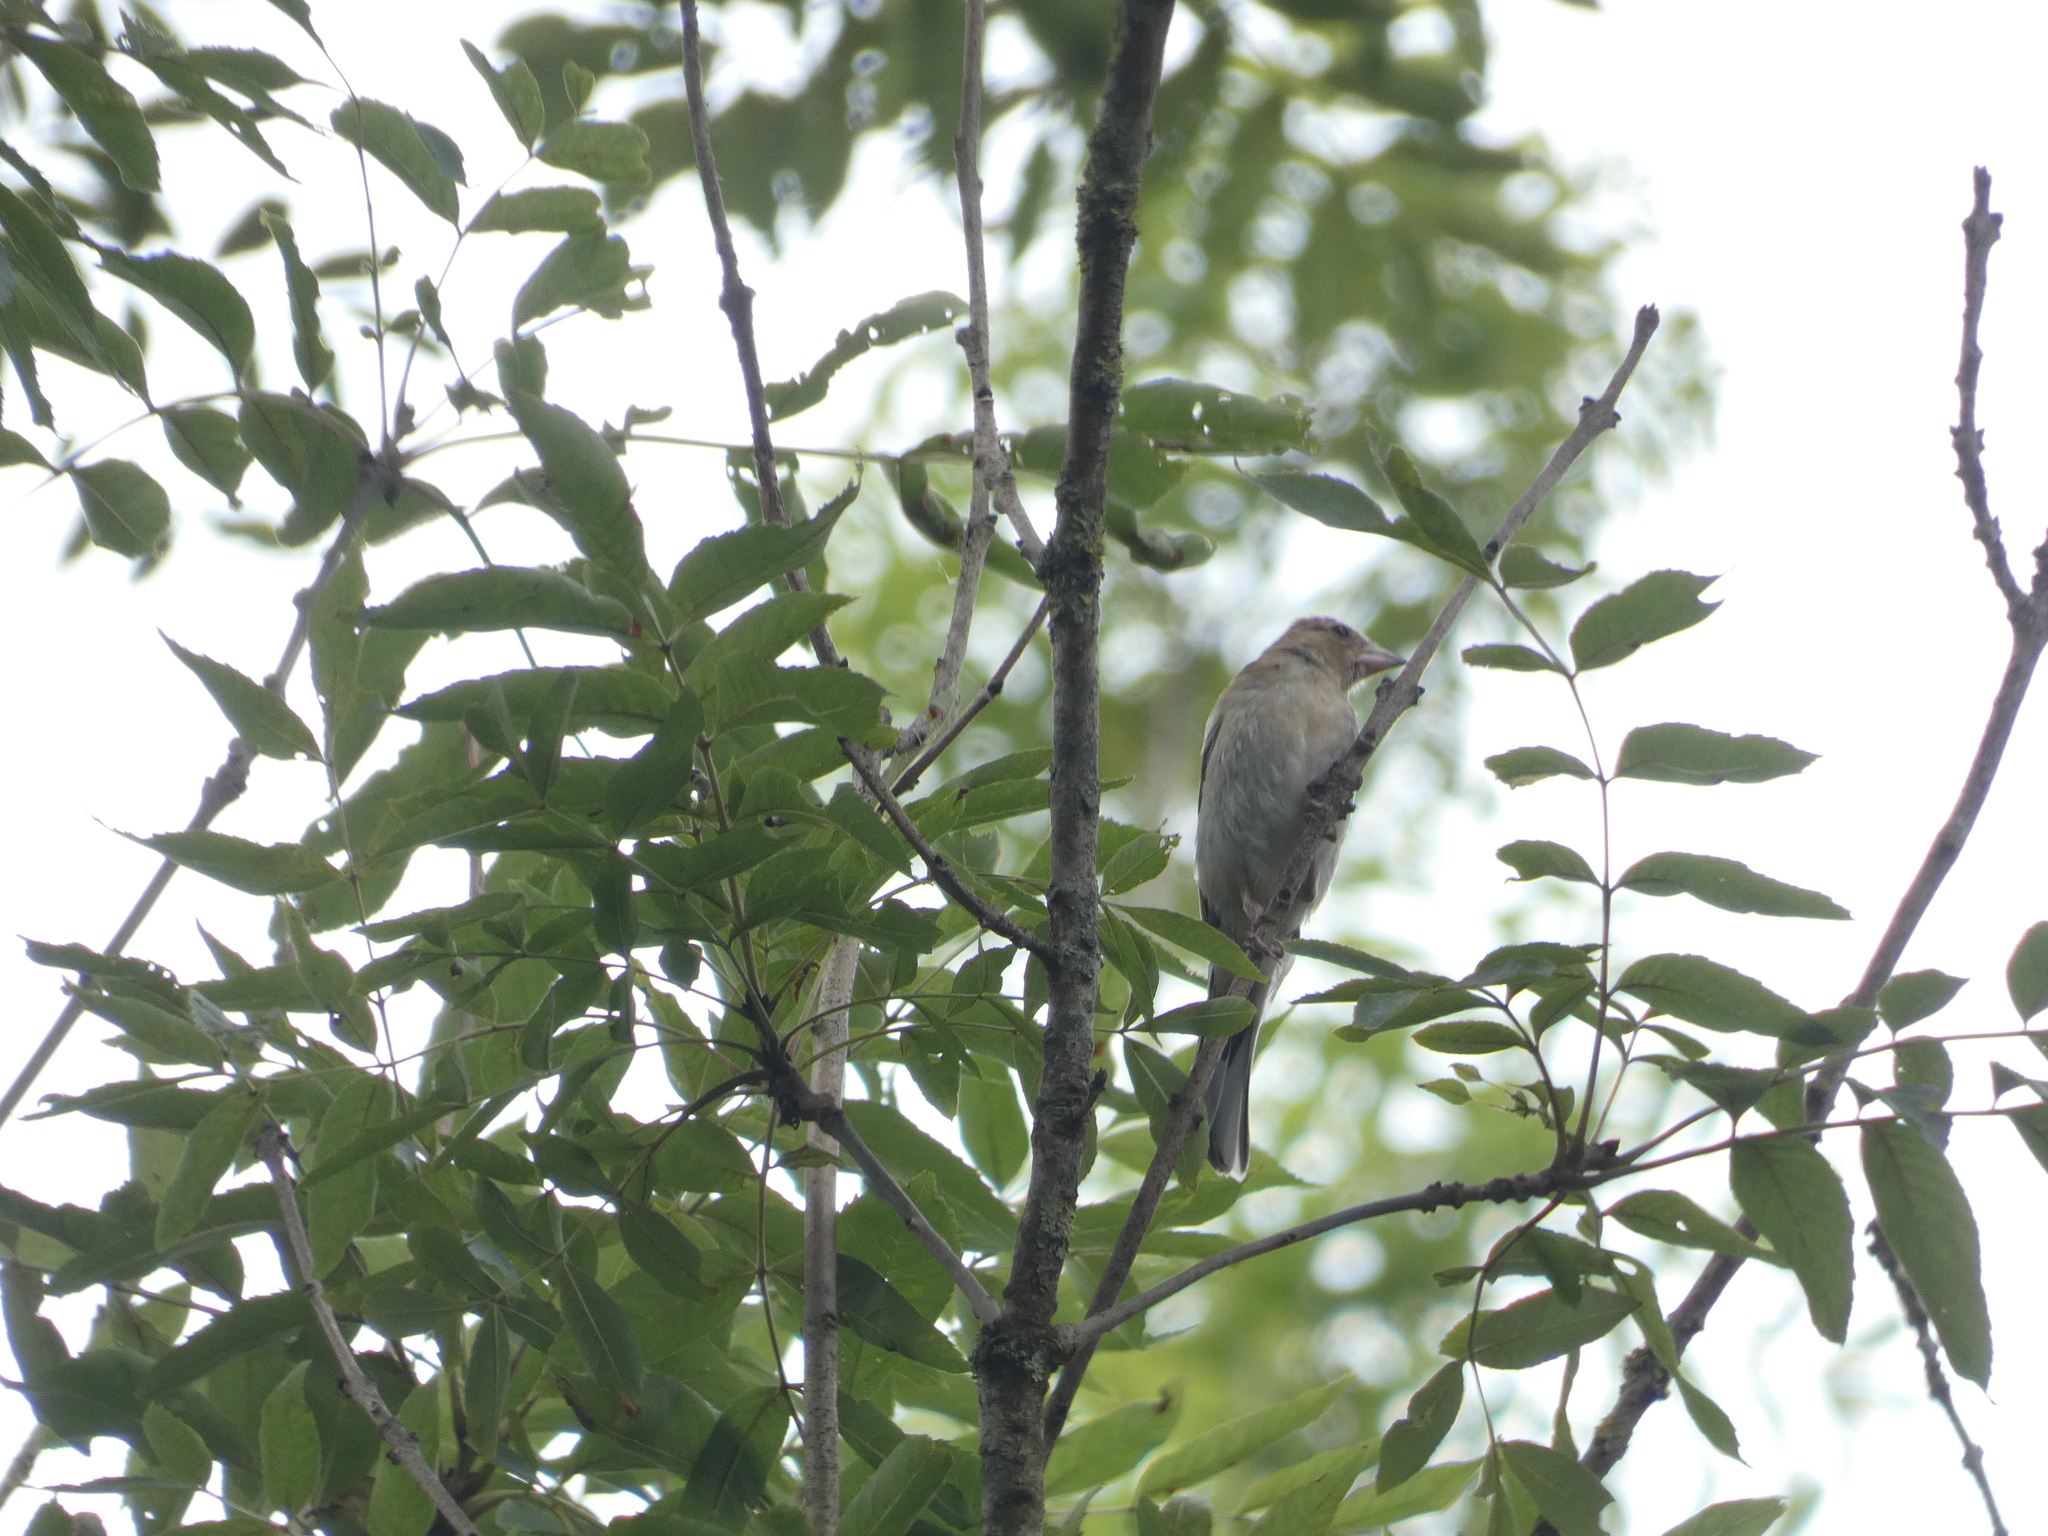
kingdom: Animalia
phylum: Chordata
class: Aves
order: Passeriformes
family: Fringillidae
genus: Carduelis
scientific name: Carduelis carduelis
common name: European goldfinch
